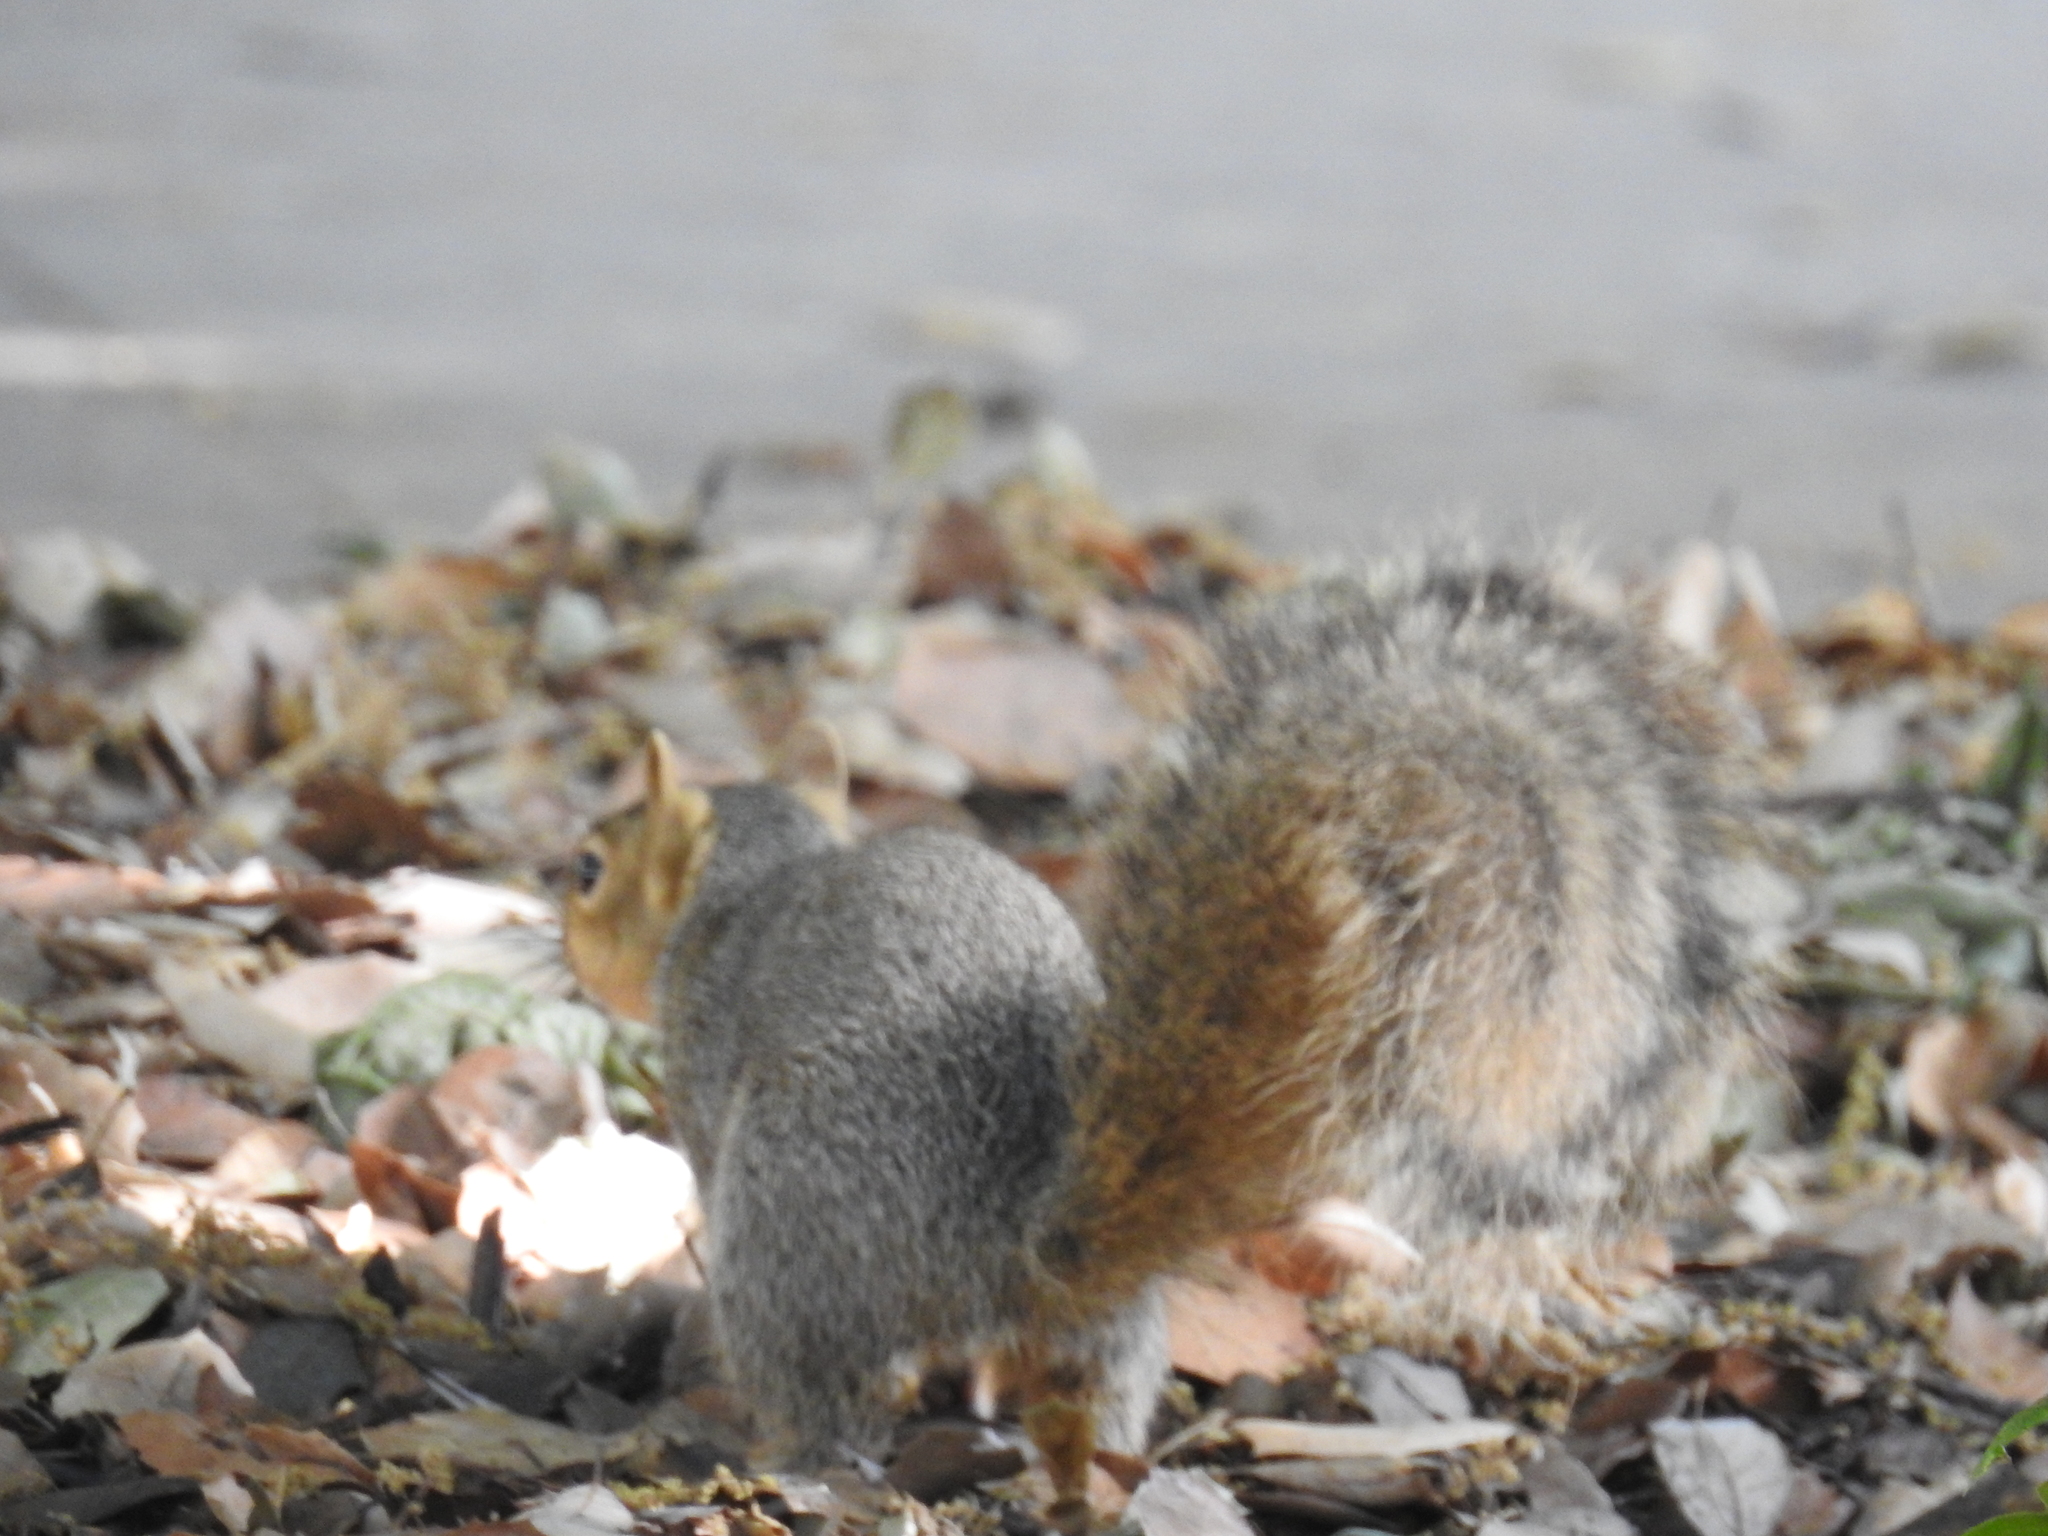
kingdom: Animalia
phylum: Chordata
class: Mammalia
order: Rodentia
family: Sciuridae
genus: Sciurus
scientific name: Sciurus niger
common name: Fox squirrel
